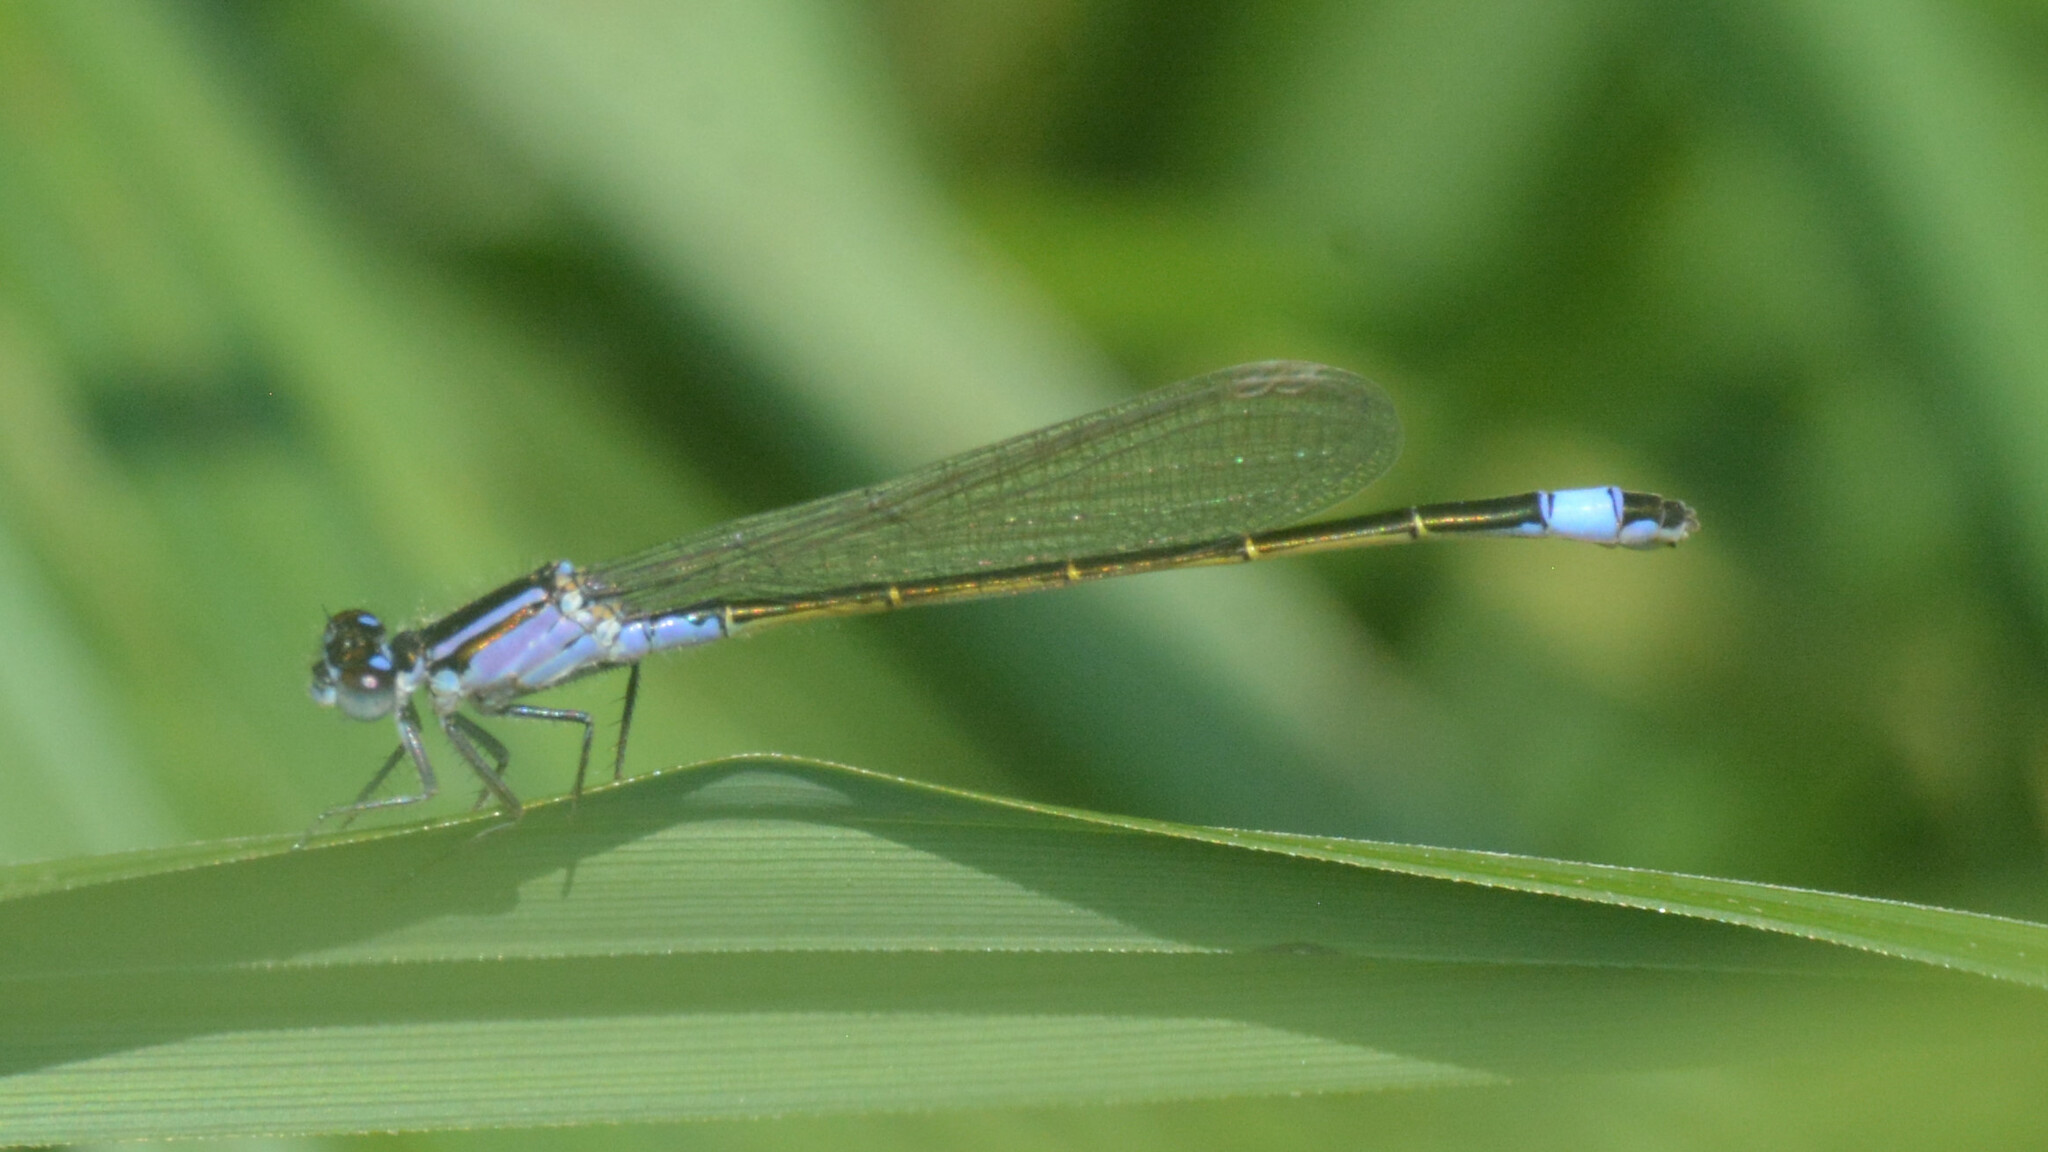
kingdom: Animalia
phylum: Arthropoda
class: Insecta
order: Odonata
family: Coenagrionidae
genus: Ischnura
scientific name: Ischnura elegans
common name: Blue-tailed damselfly
